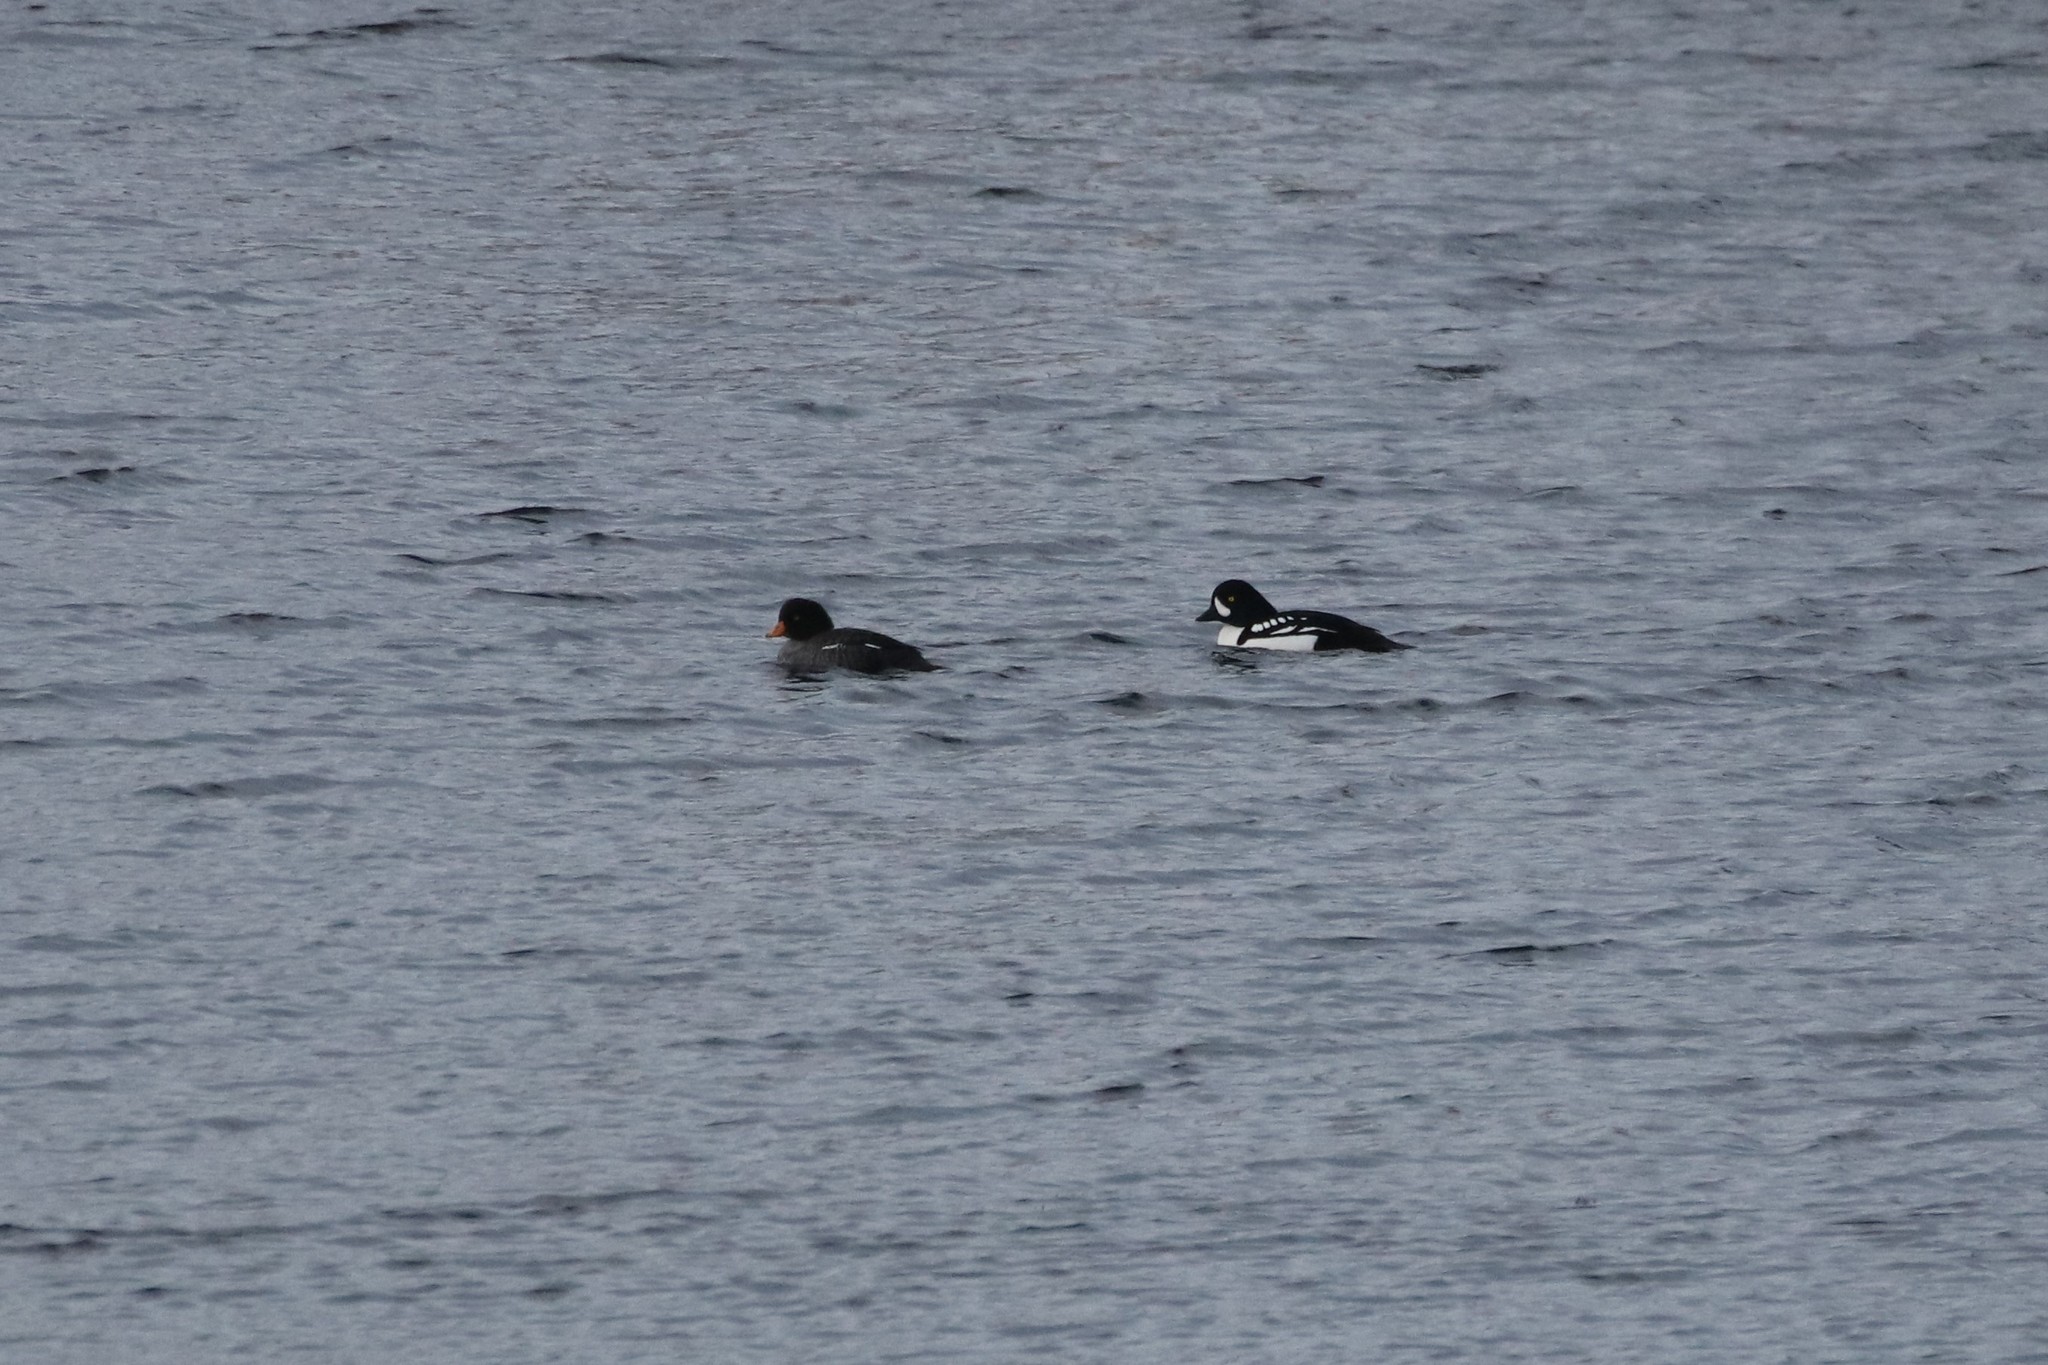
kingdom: Animalia
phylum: Chordata
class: Aves
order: Anseriformes
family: Anatidae
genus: Bucephala
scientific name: Bucephala islandica
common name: Barrow's goldeneye
